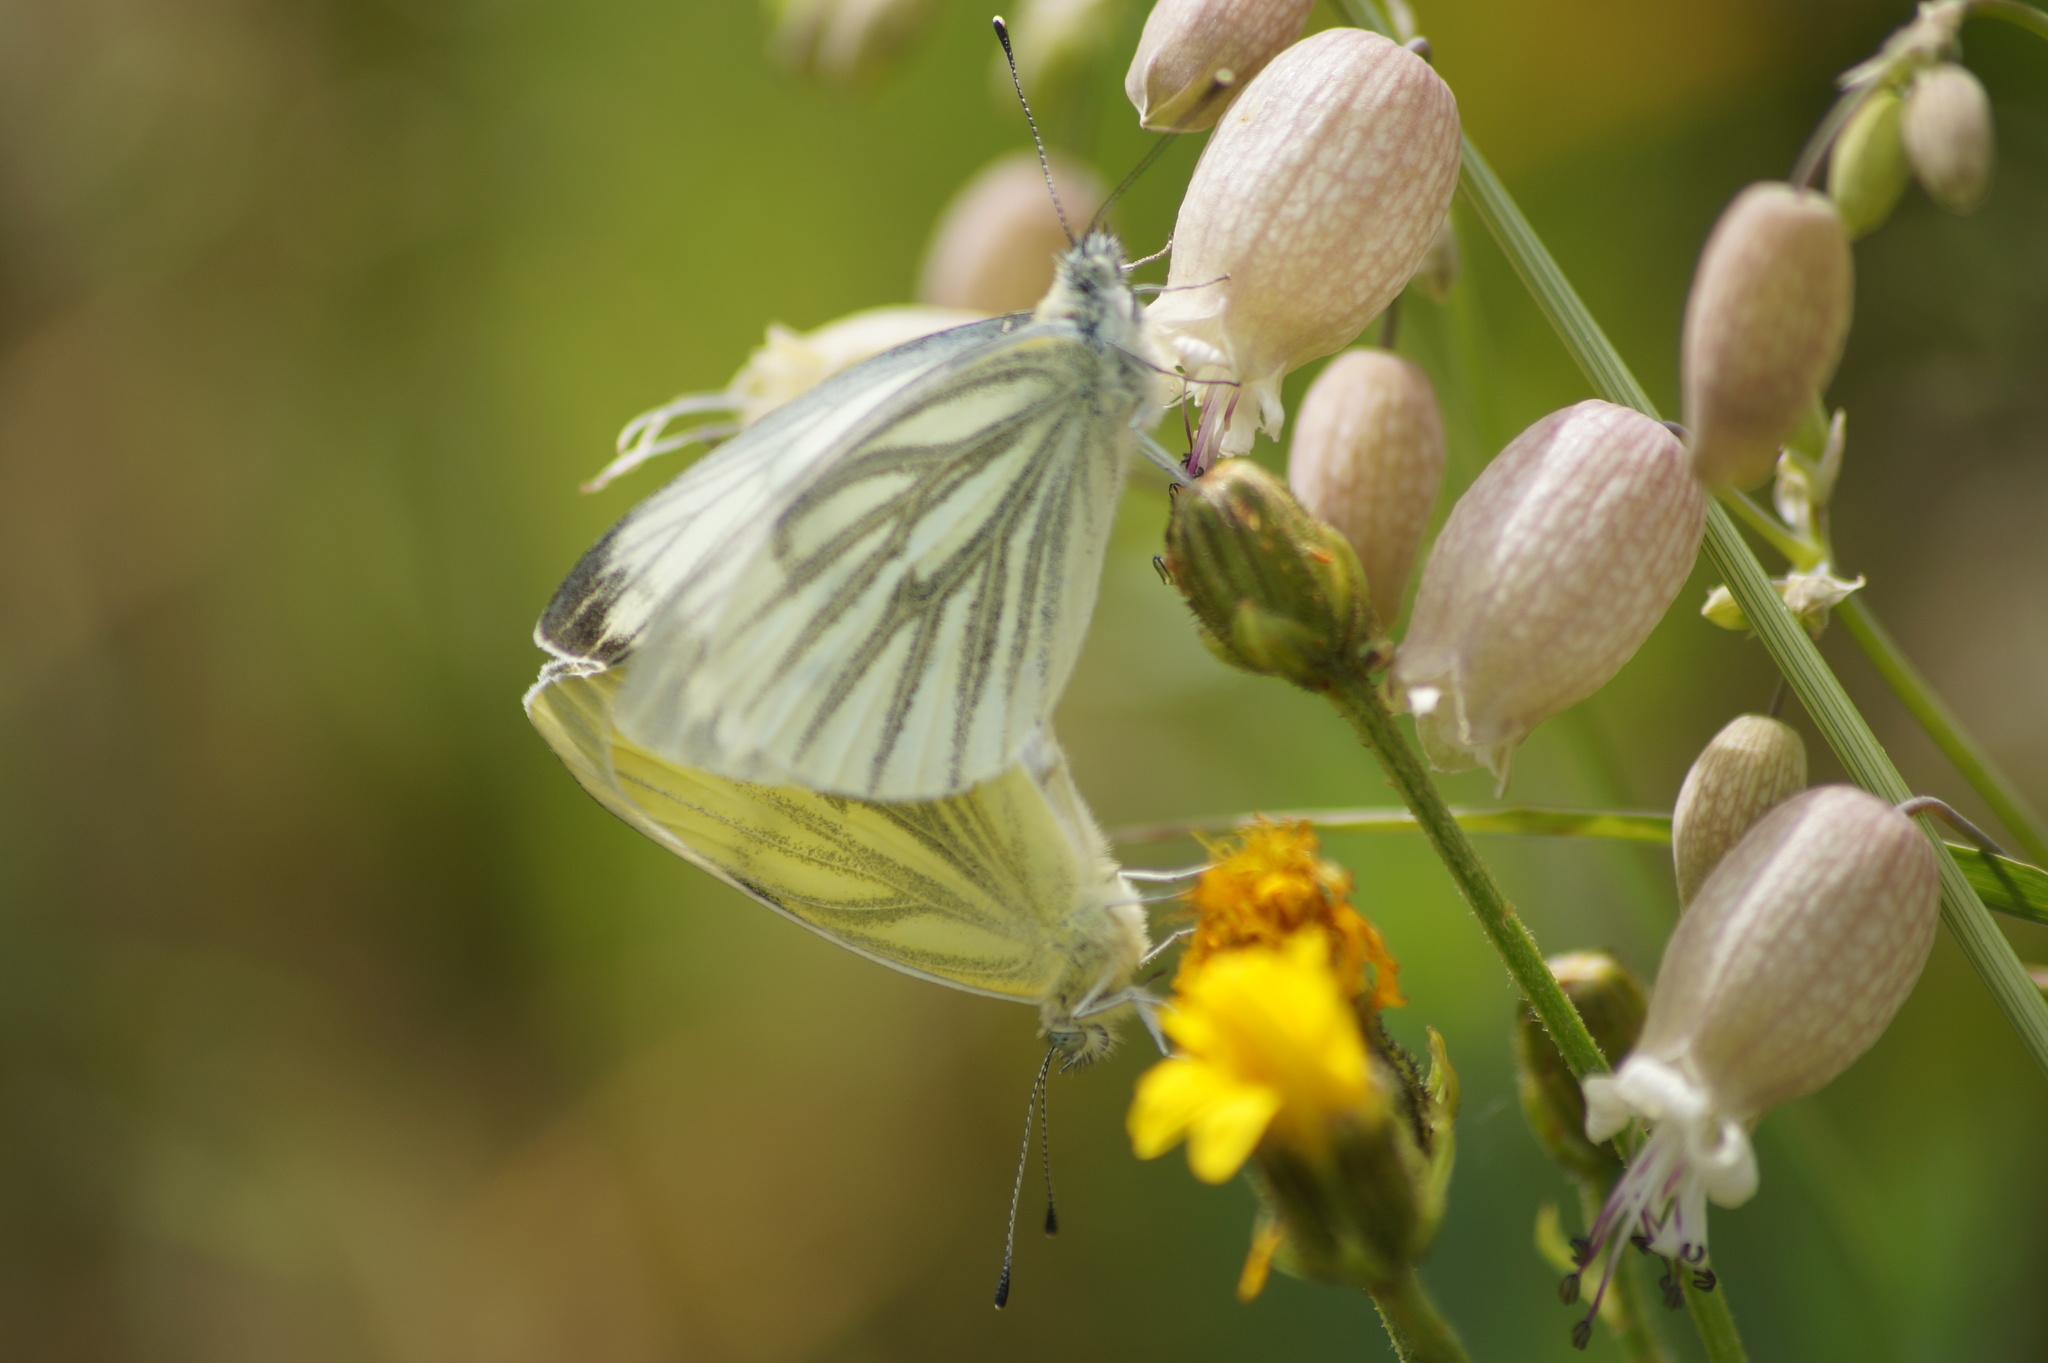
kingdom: Animalia
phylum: Arthropoda
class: Insecta
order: Lepidoptera
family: Pieridae
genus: Pieris
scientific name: Pieris napi
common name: Green-veined white
